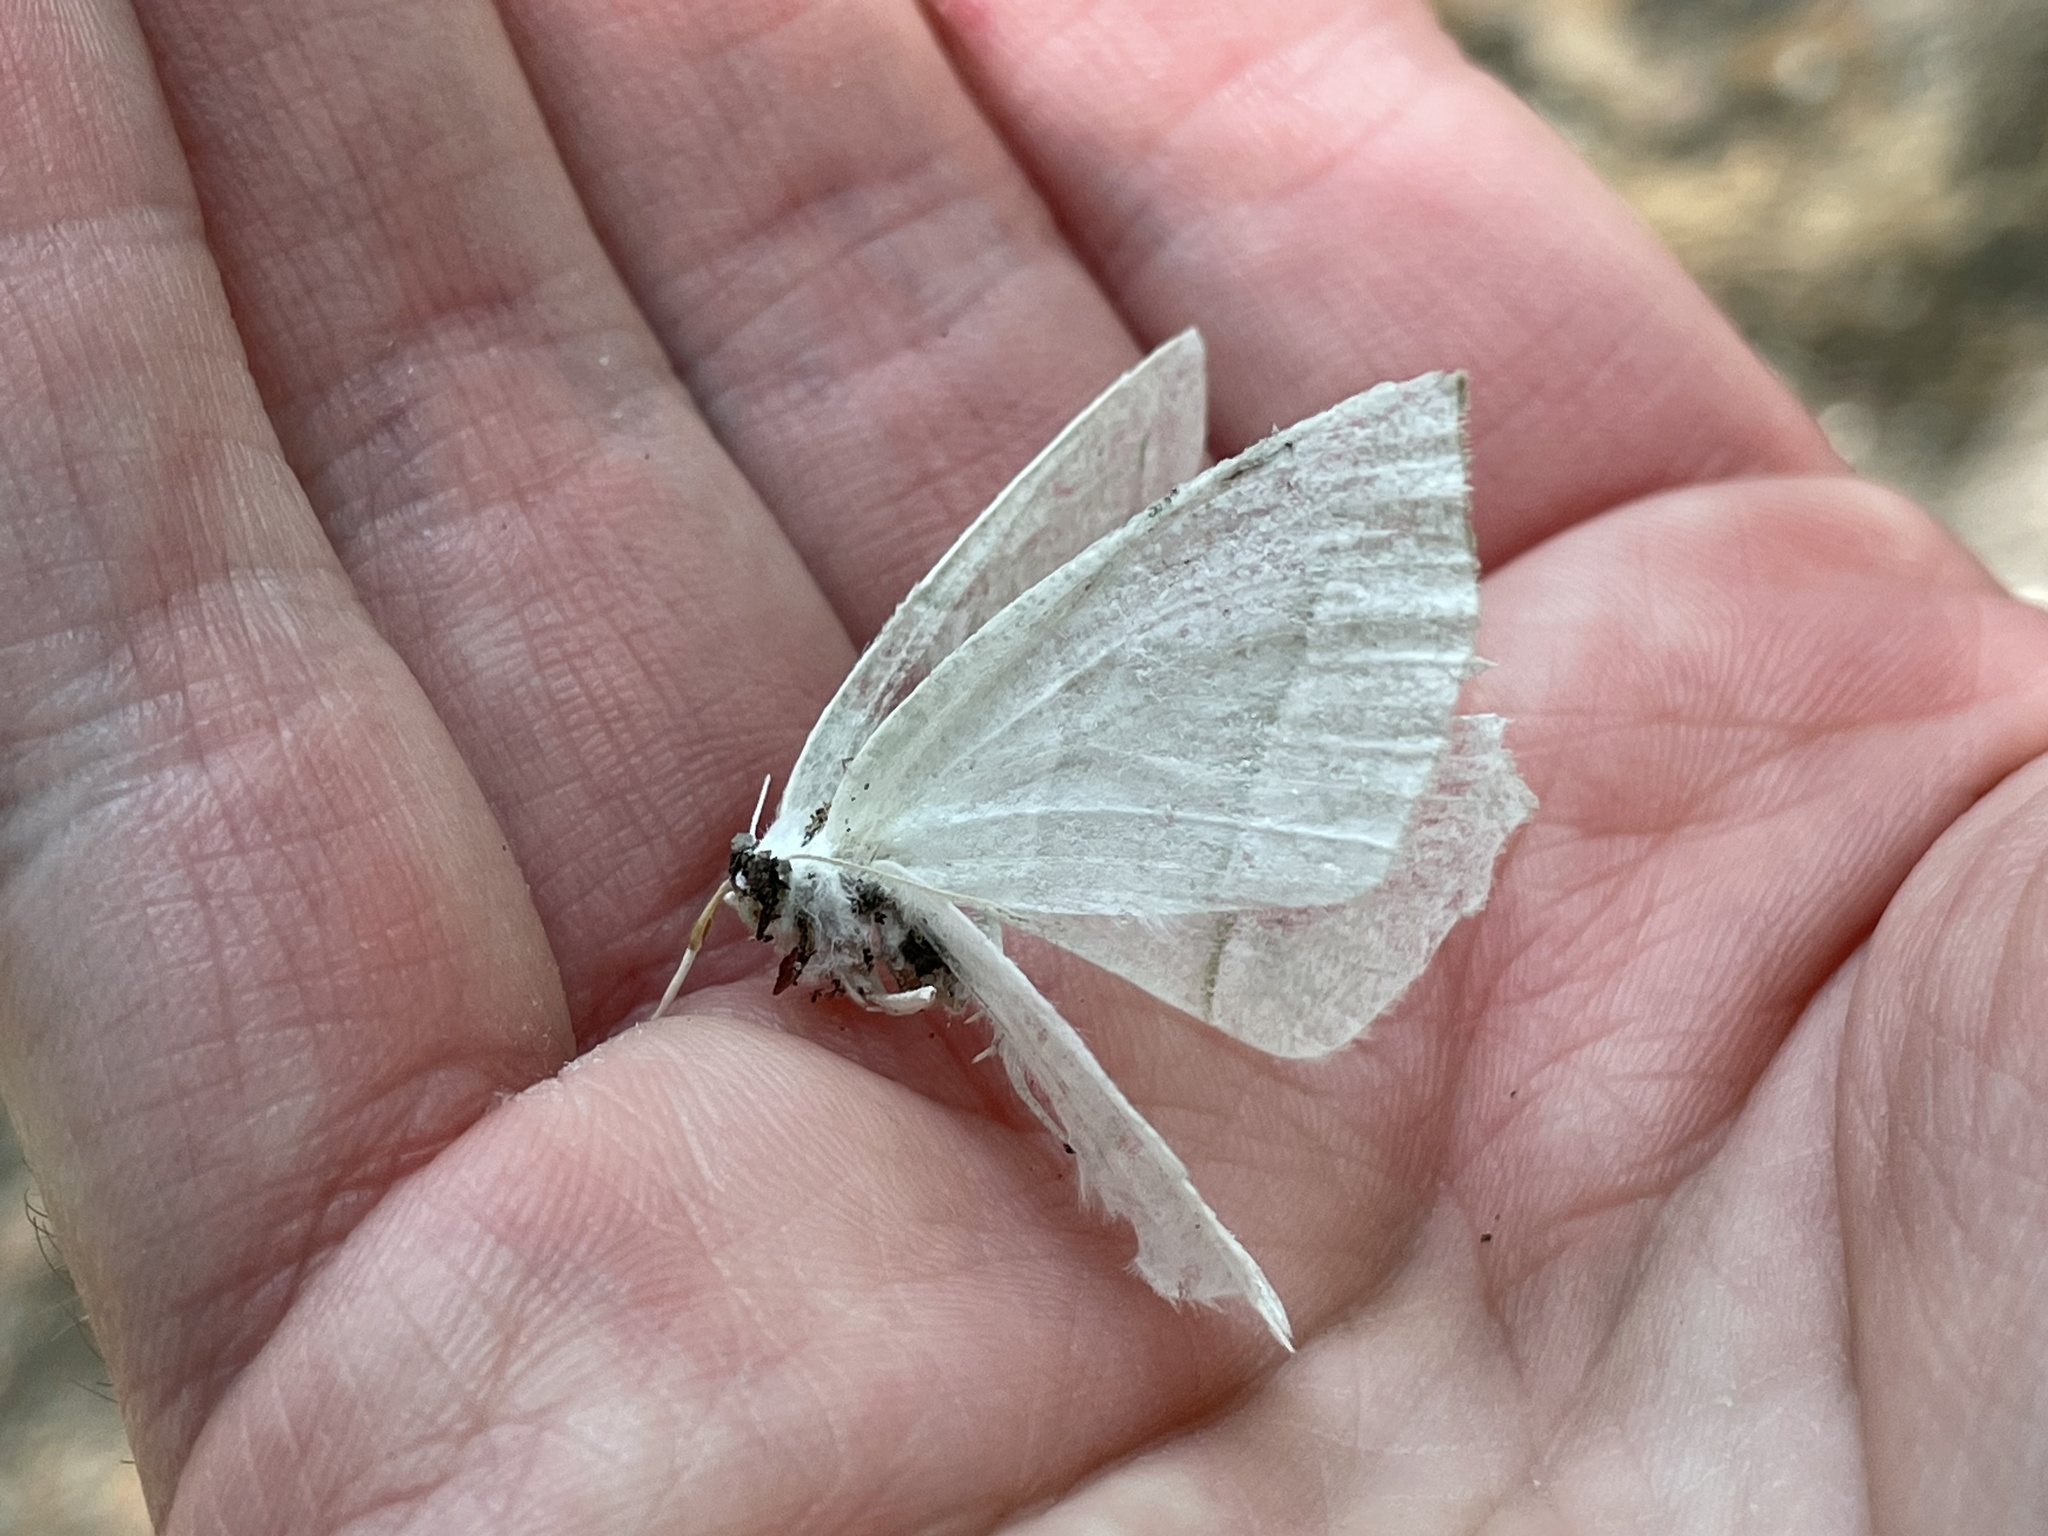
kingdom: Animalia
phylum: Arthropoda
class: Insecta
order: Lepidoptera
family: Geometridae
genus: Campaea
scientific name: Campaea perlata
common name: Fringed looper
